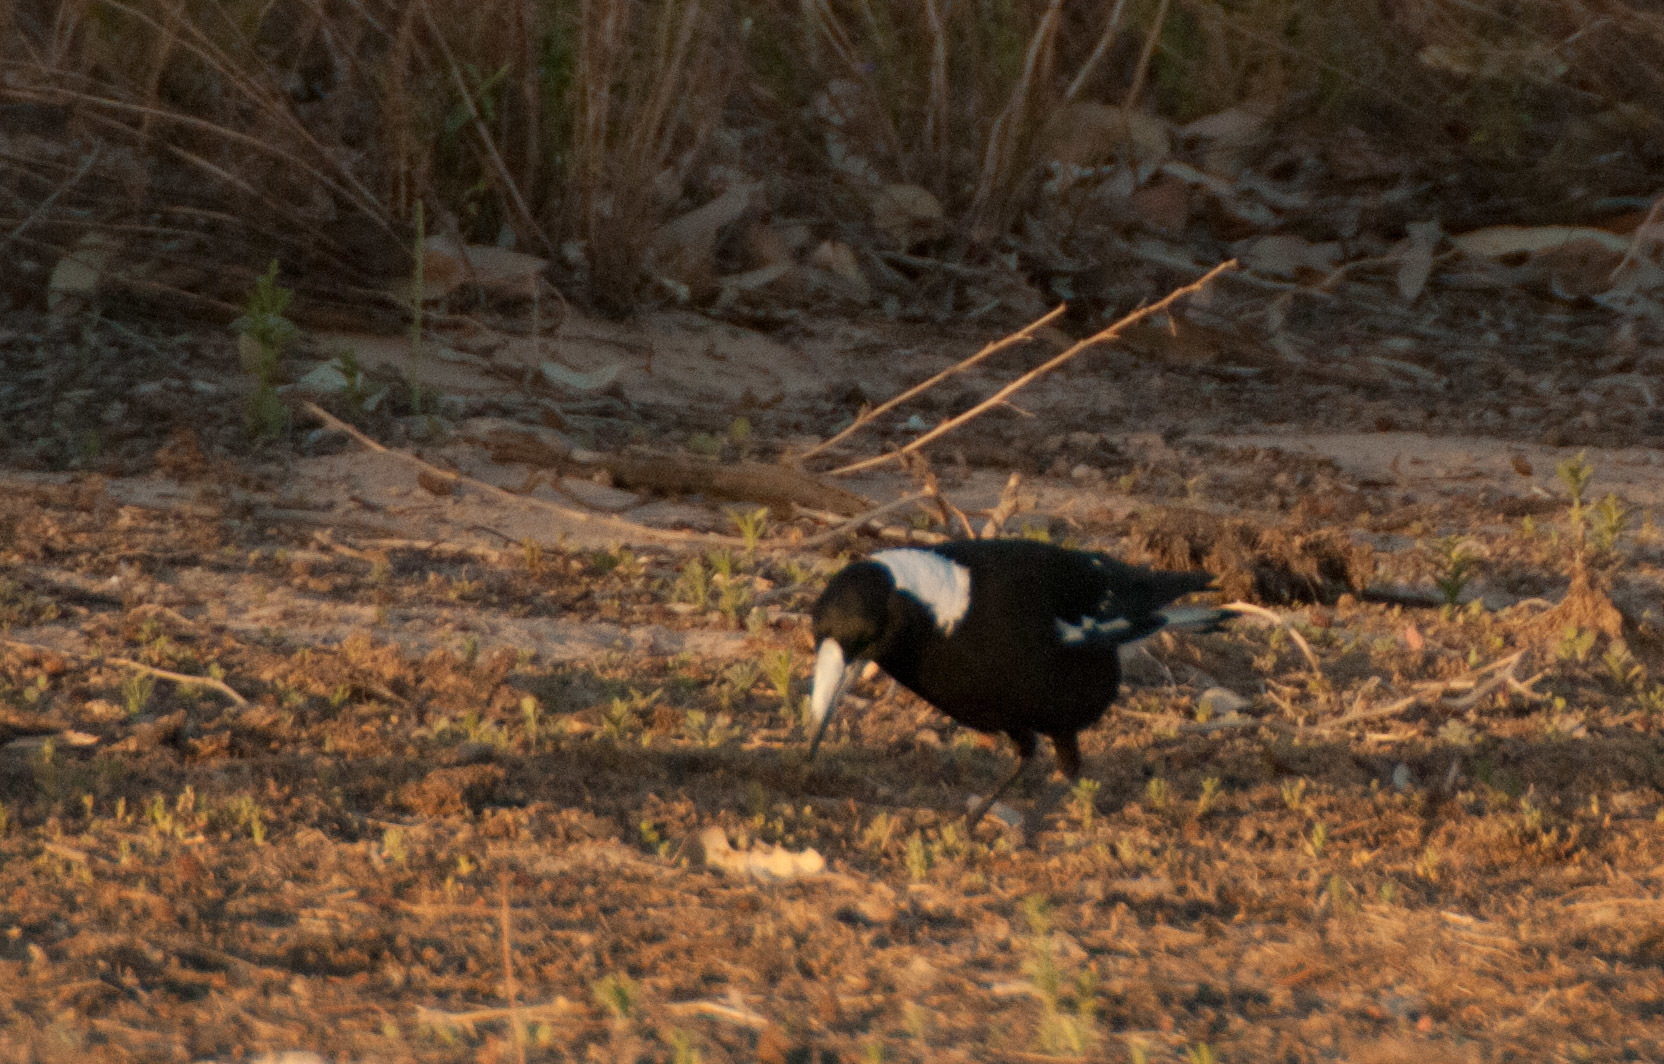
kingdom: Animalia
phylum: Chordata
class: Aves
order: Passeriformes
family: Cracticidae
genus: Gymnorhina
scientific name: Gymnorhina tibicen
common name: Australian magpie
